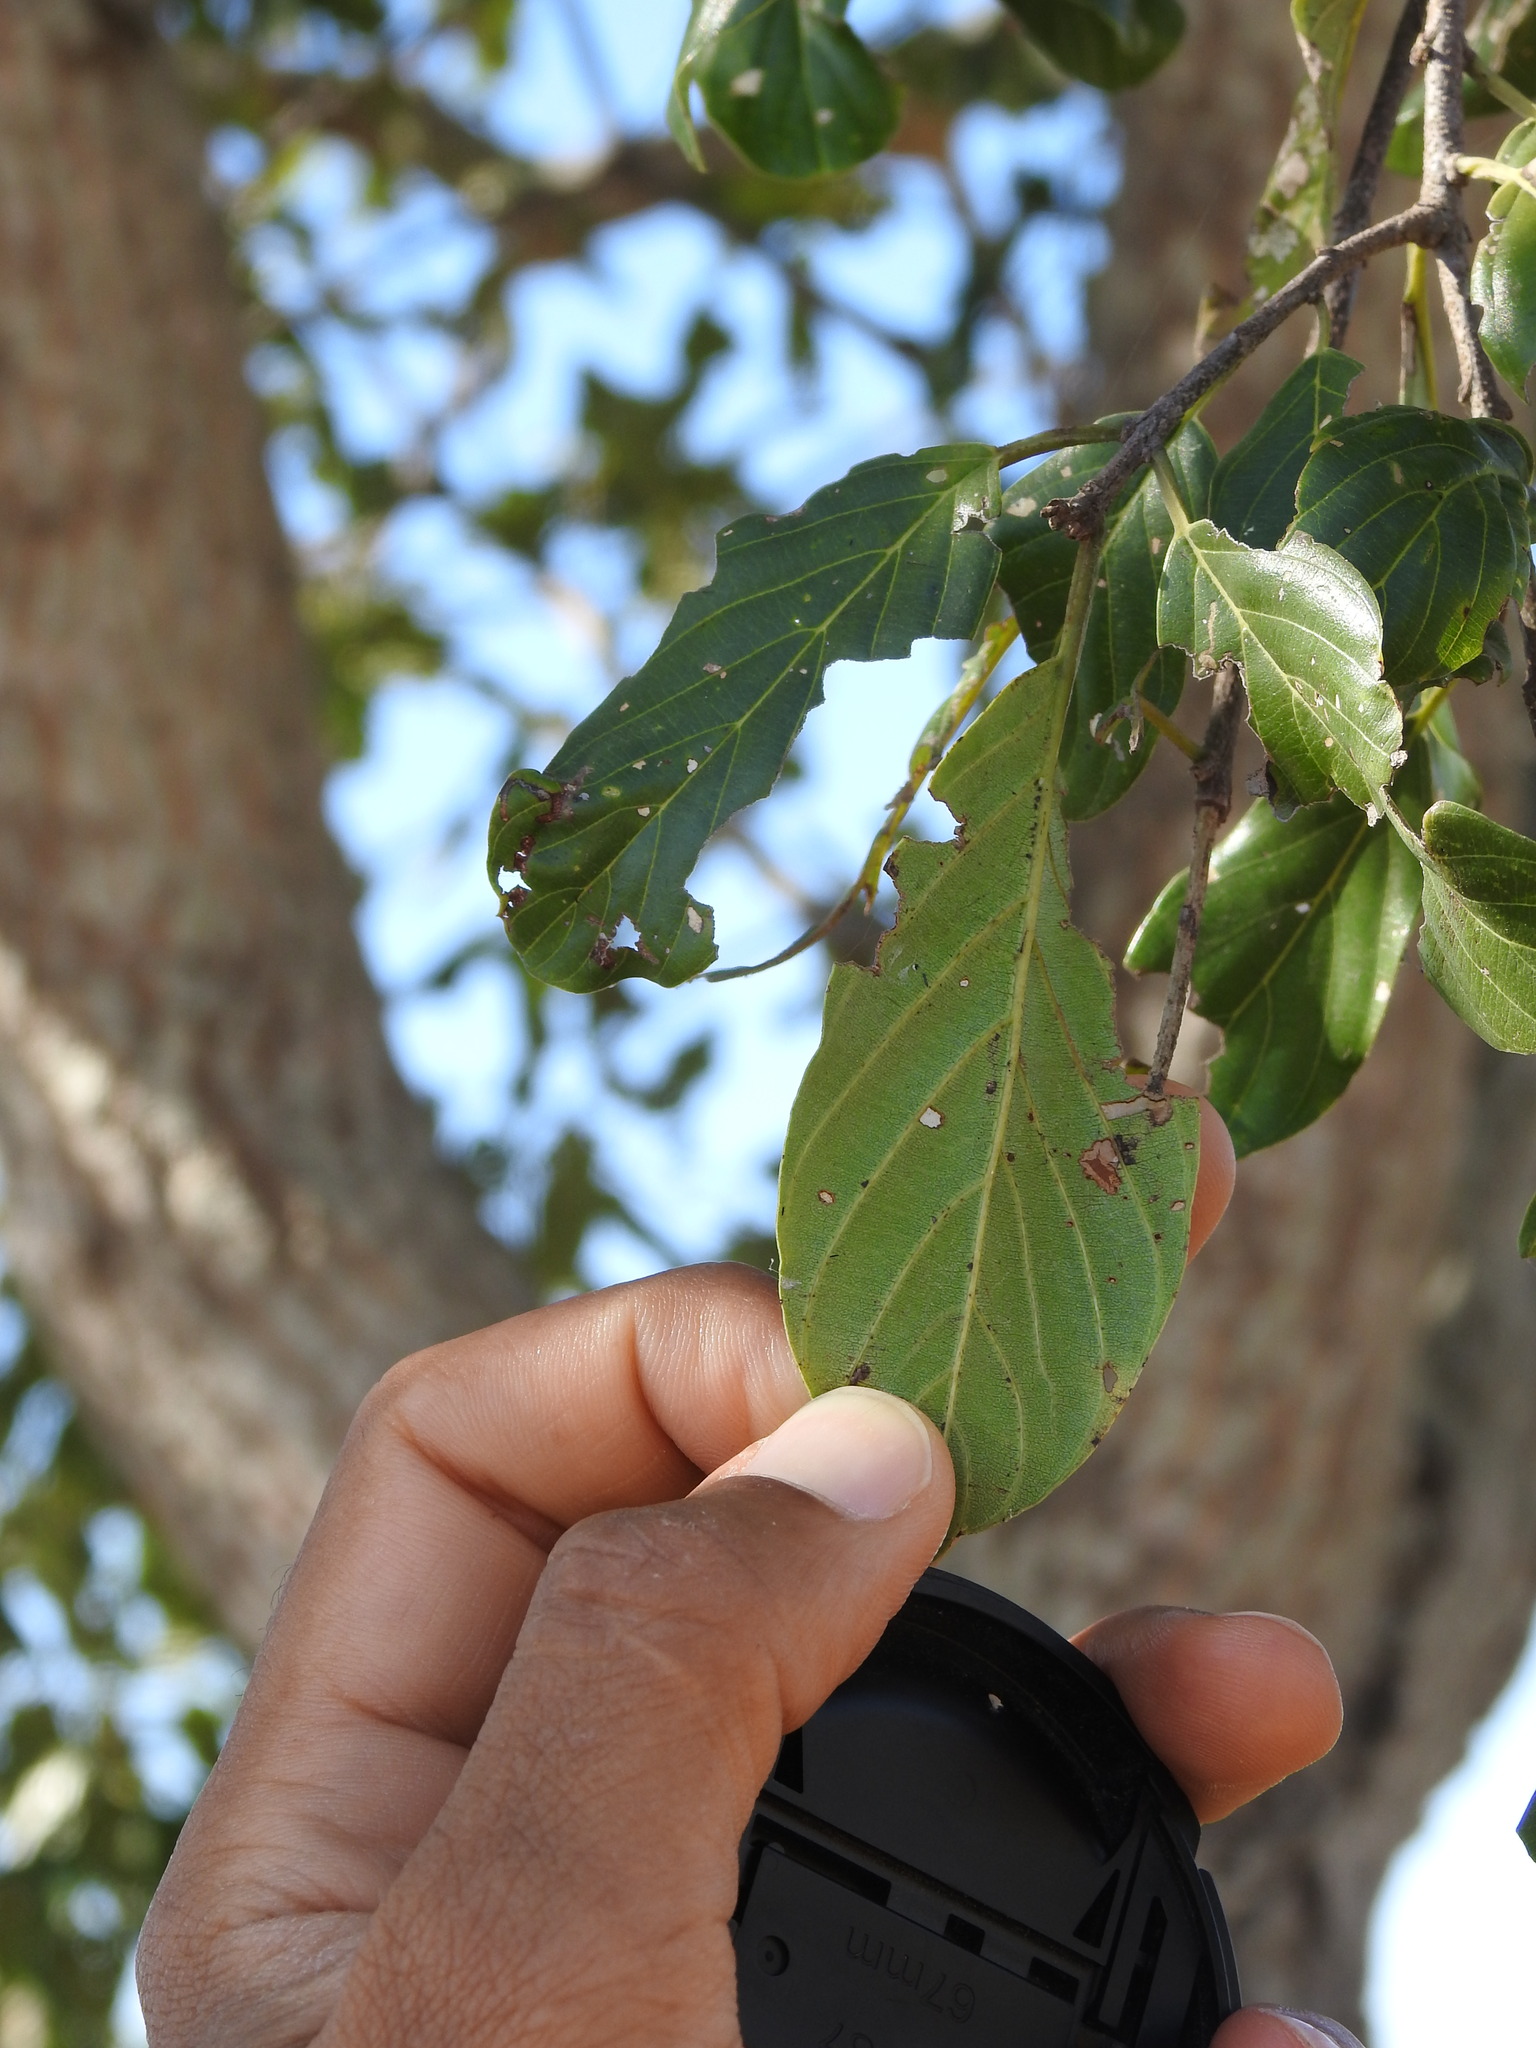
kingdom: Plantae
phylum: Tracheophyta
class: Magnoliopsida
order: Rosales
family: Rhamnaceae
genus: Phyllogeiton
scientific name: Phyllogeiton discolor
